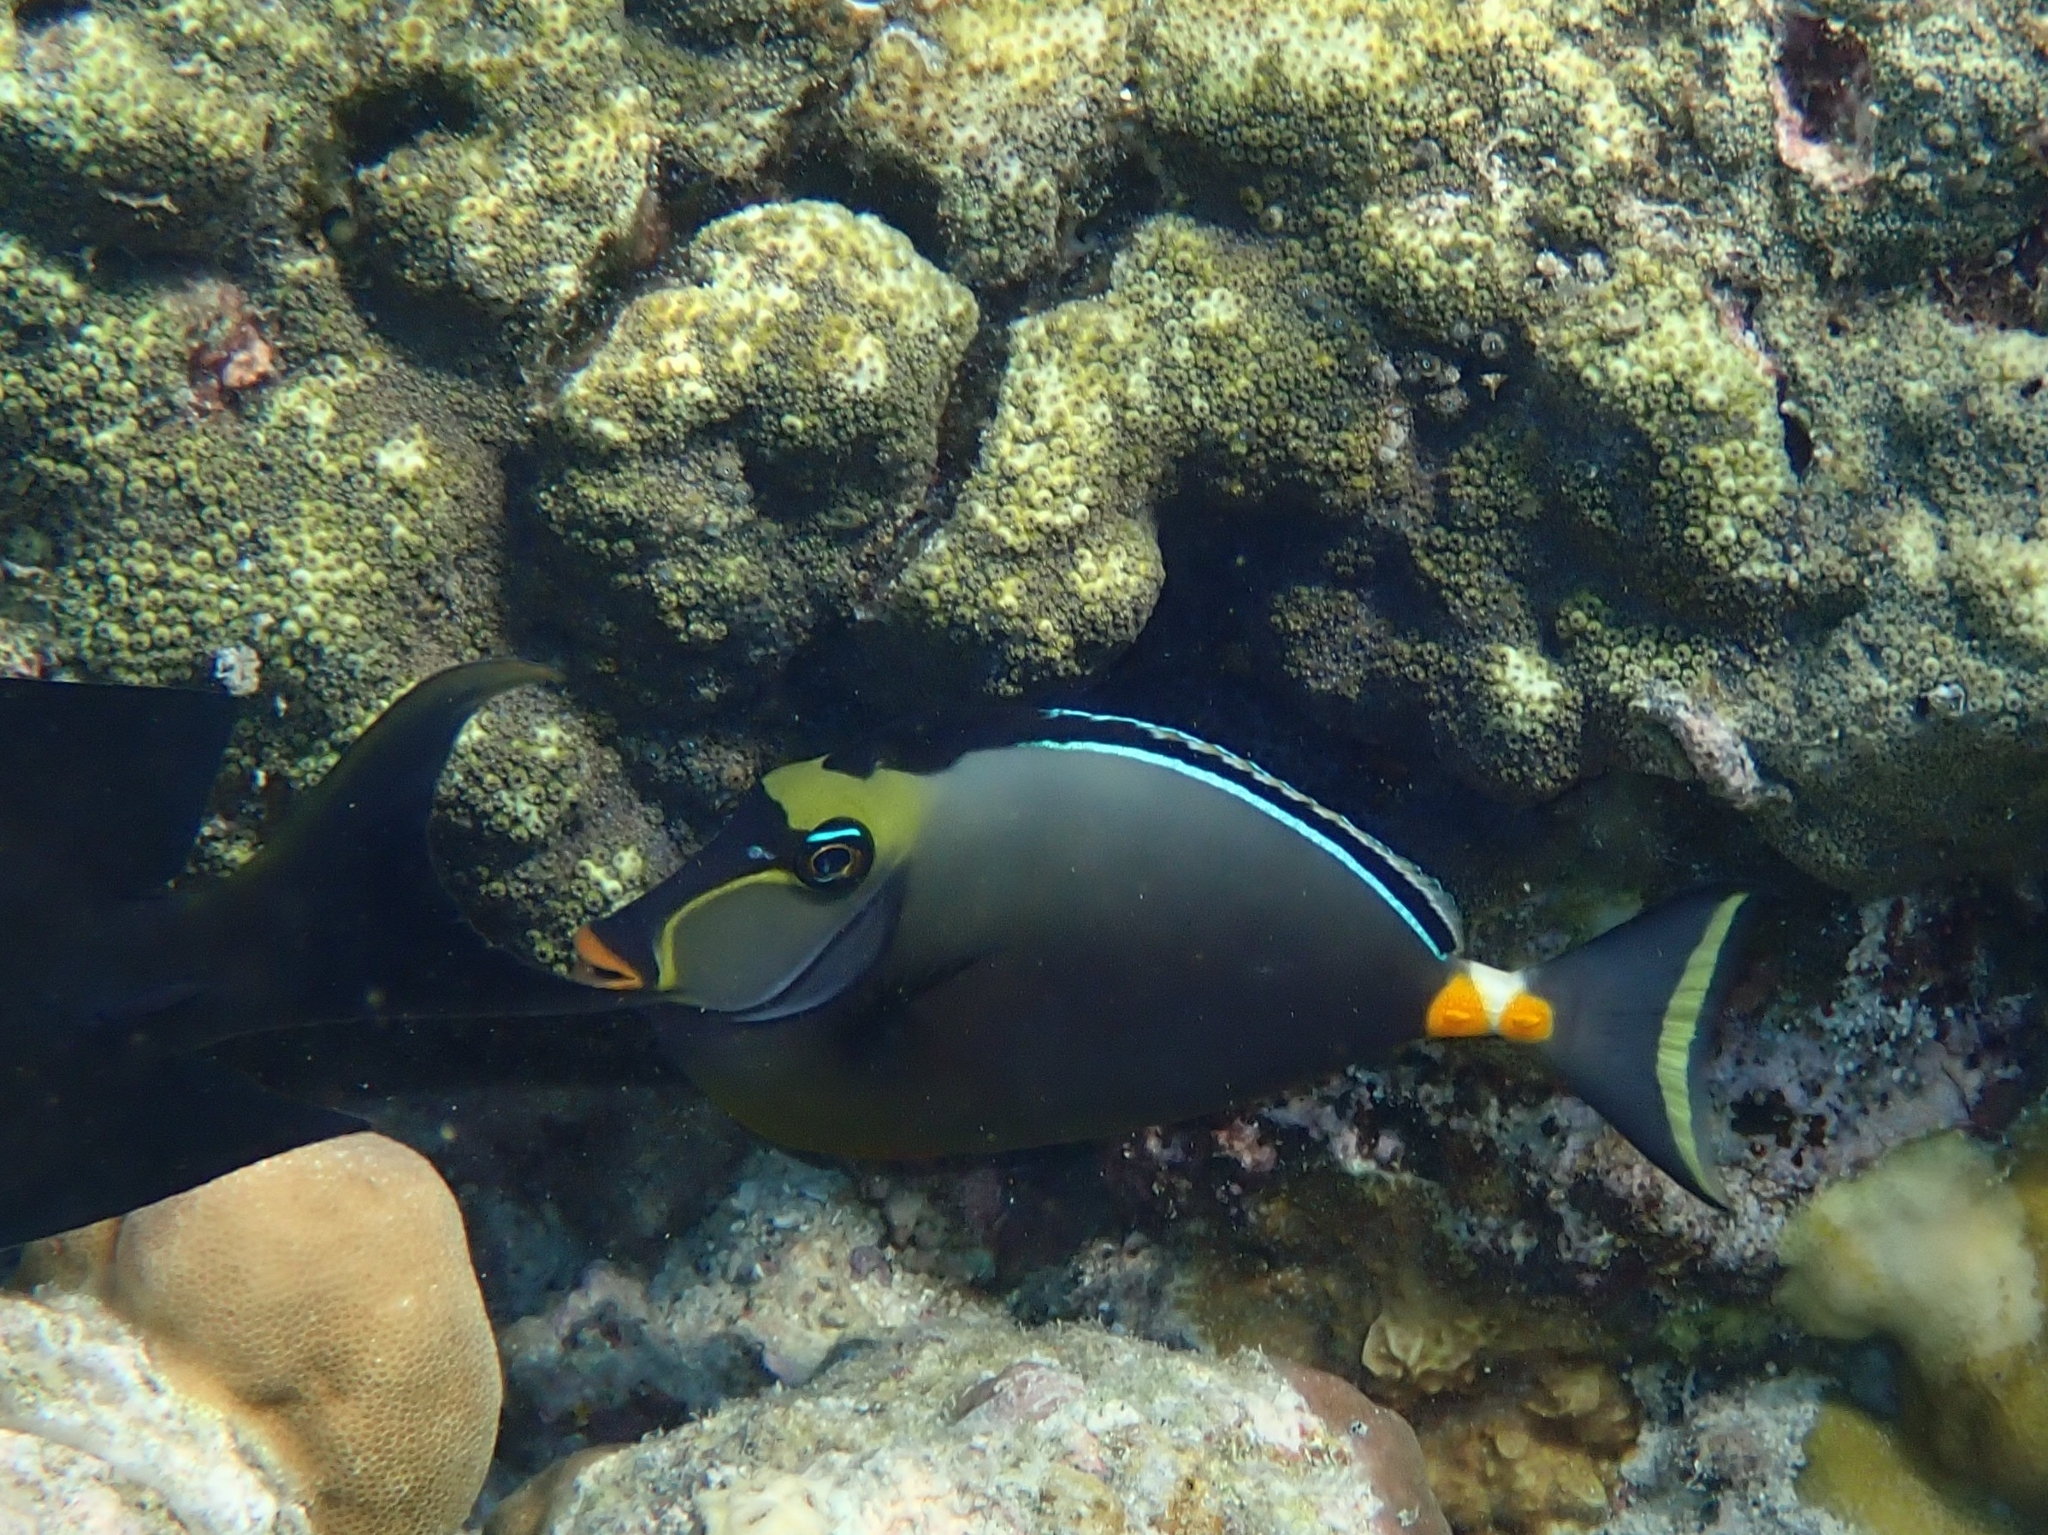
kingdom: Animalia
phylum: Chordata
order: Perciformes
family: Acanthuridae
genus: Naso
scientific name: Naso lituratus
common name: Orangespine unicornfish
